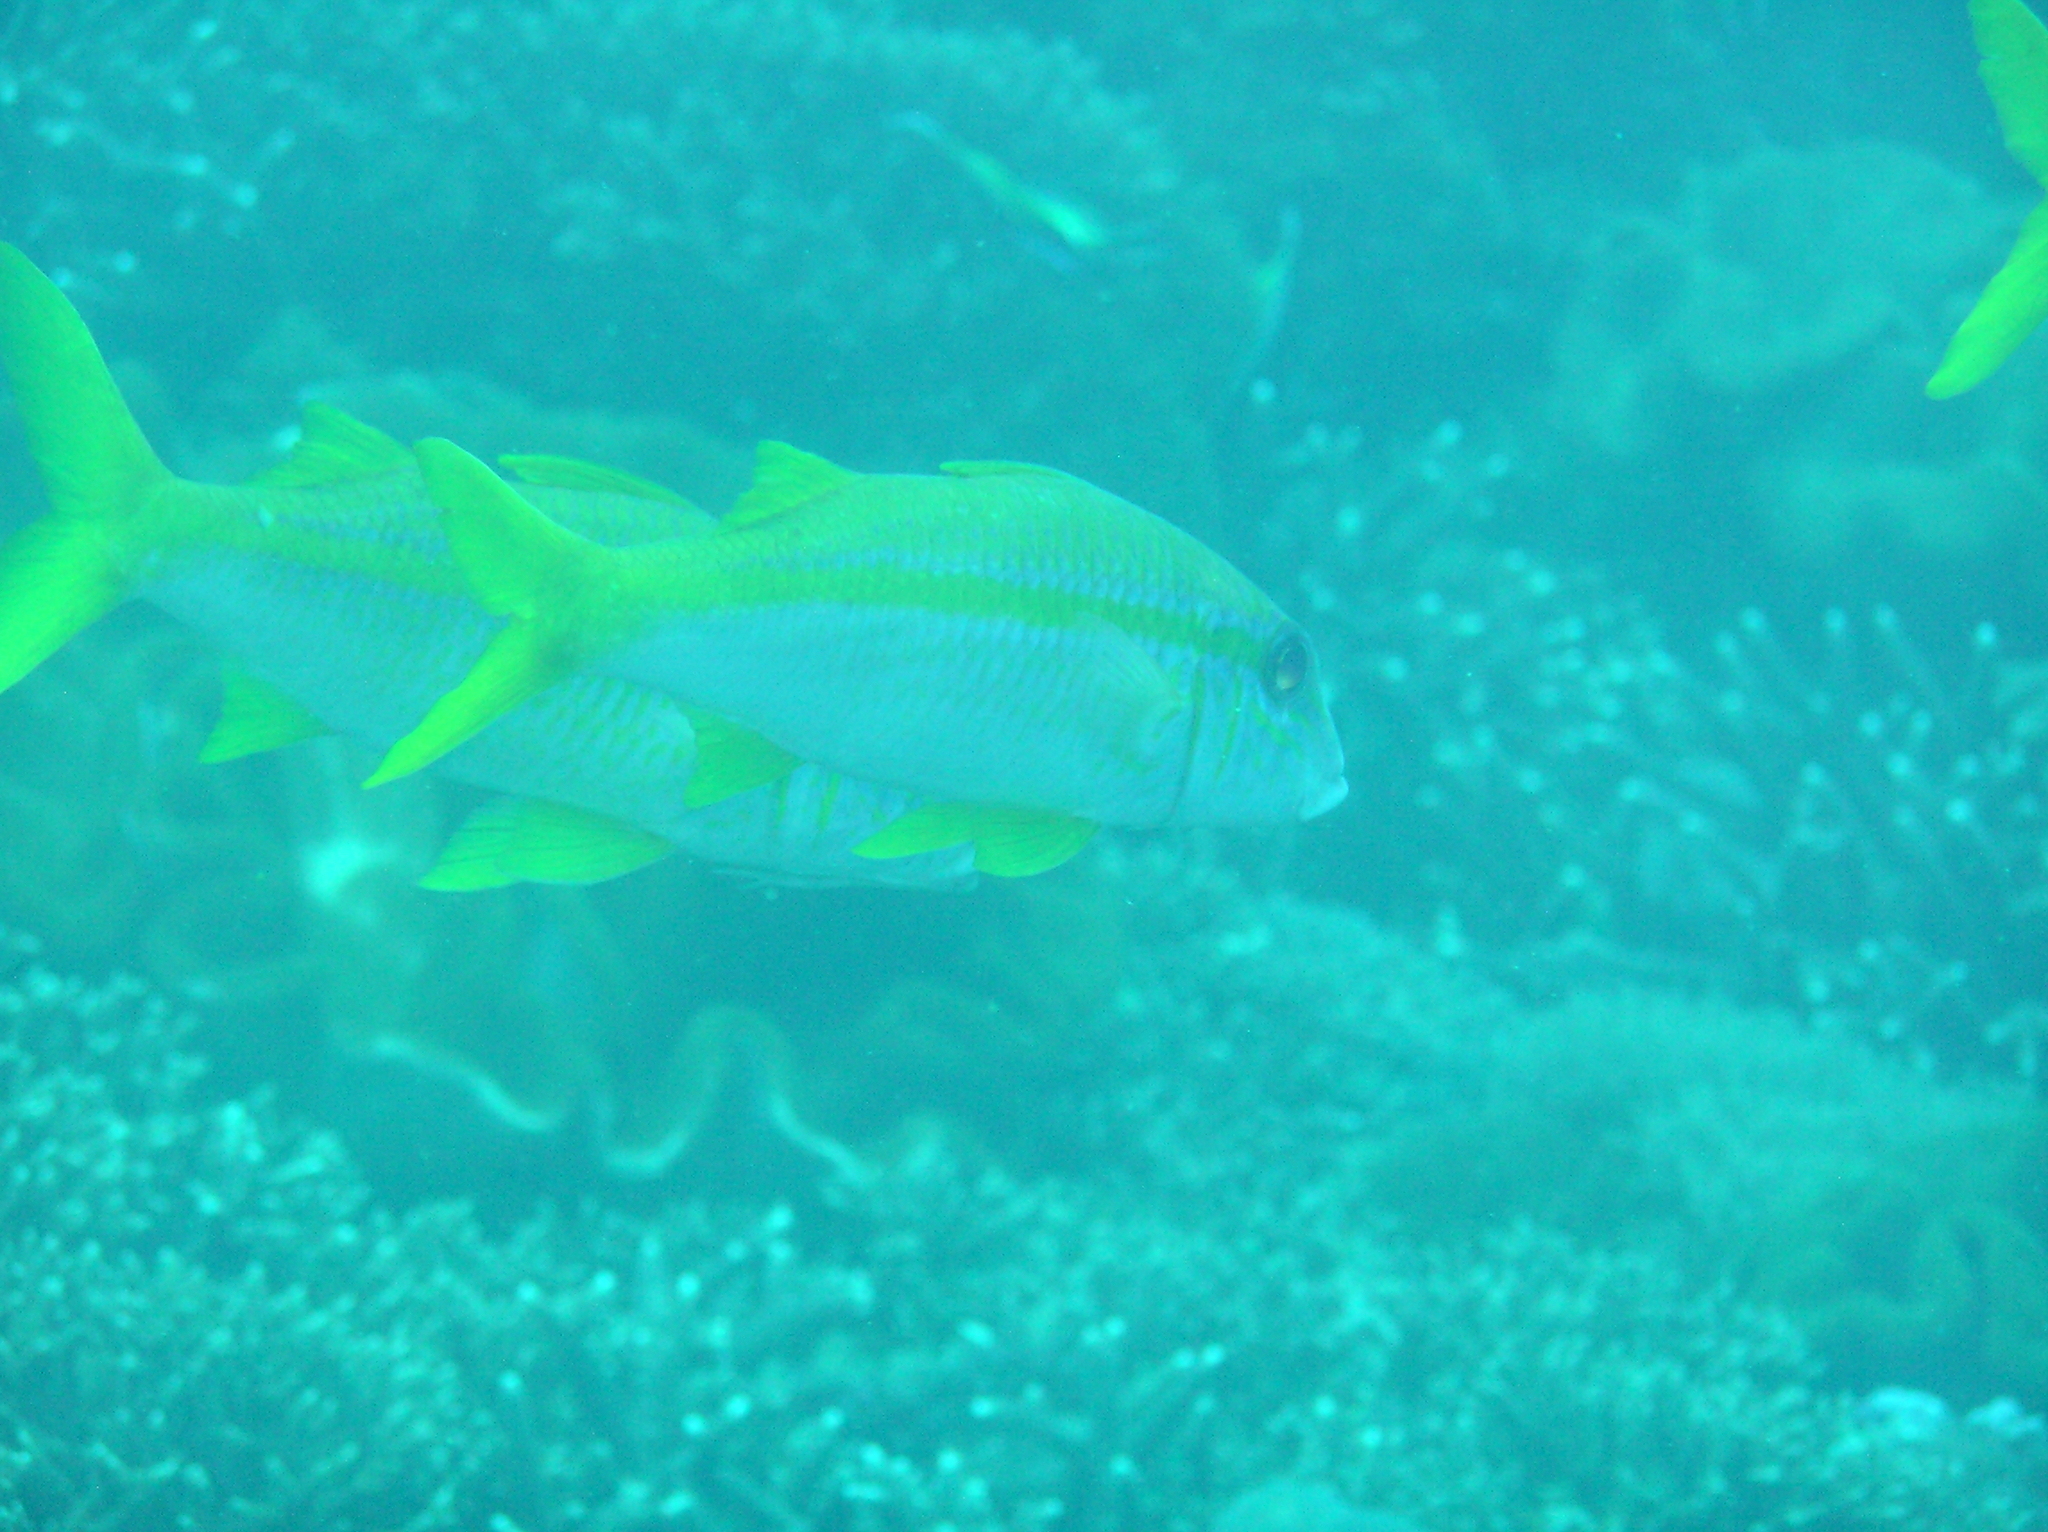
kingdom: Animalia
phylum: Chordata
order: Perciformes
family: Mullidae
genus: Mulloidichthys
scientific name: Mulloidichthys vanicolensis
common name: Yellowfin goatfish
